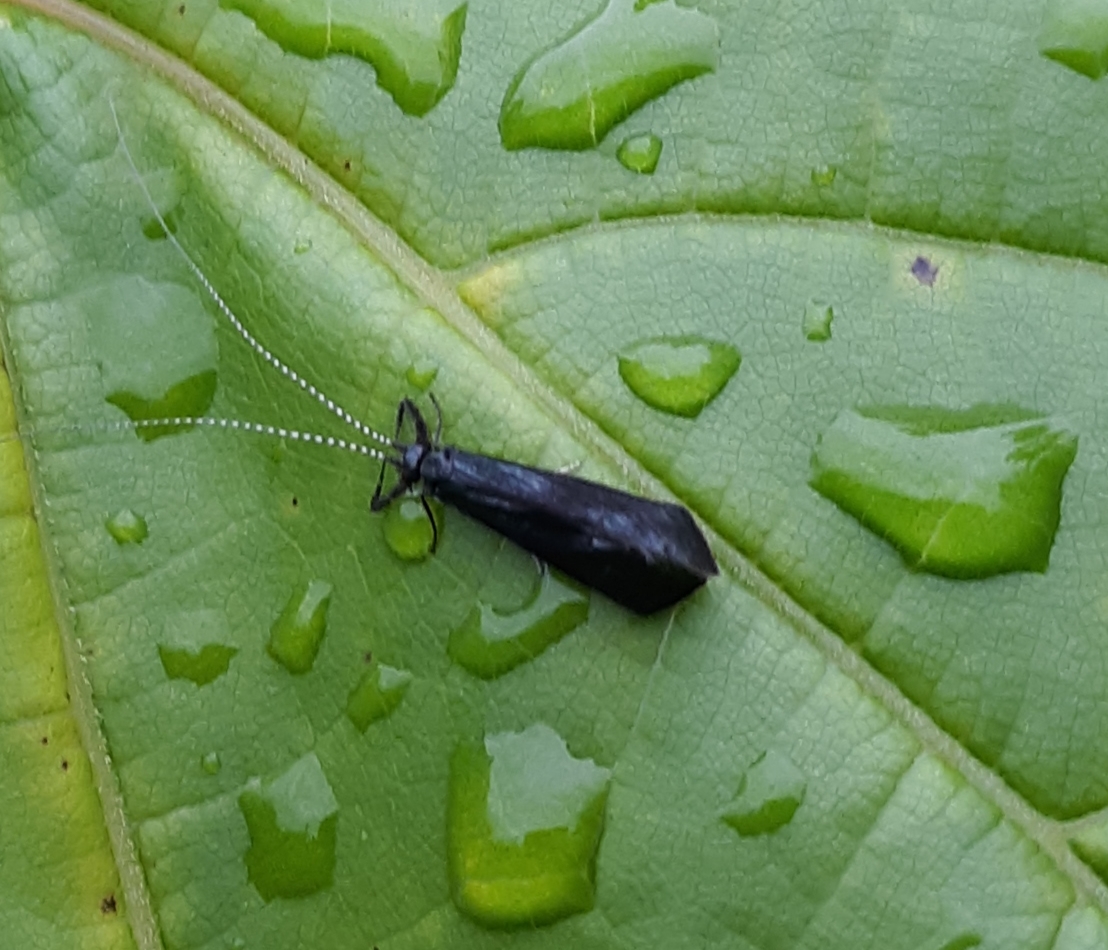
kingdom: Animalia
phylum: Arthropoda
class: Insecta
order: Trichoptera
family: Leptoceridae
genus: Mystacides
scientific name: Mystacides sepulchralis
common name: Black dancer caddisfly
